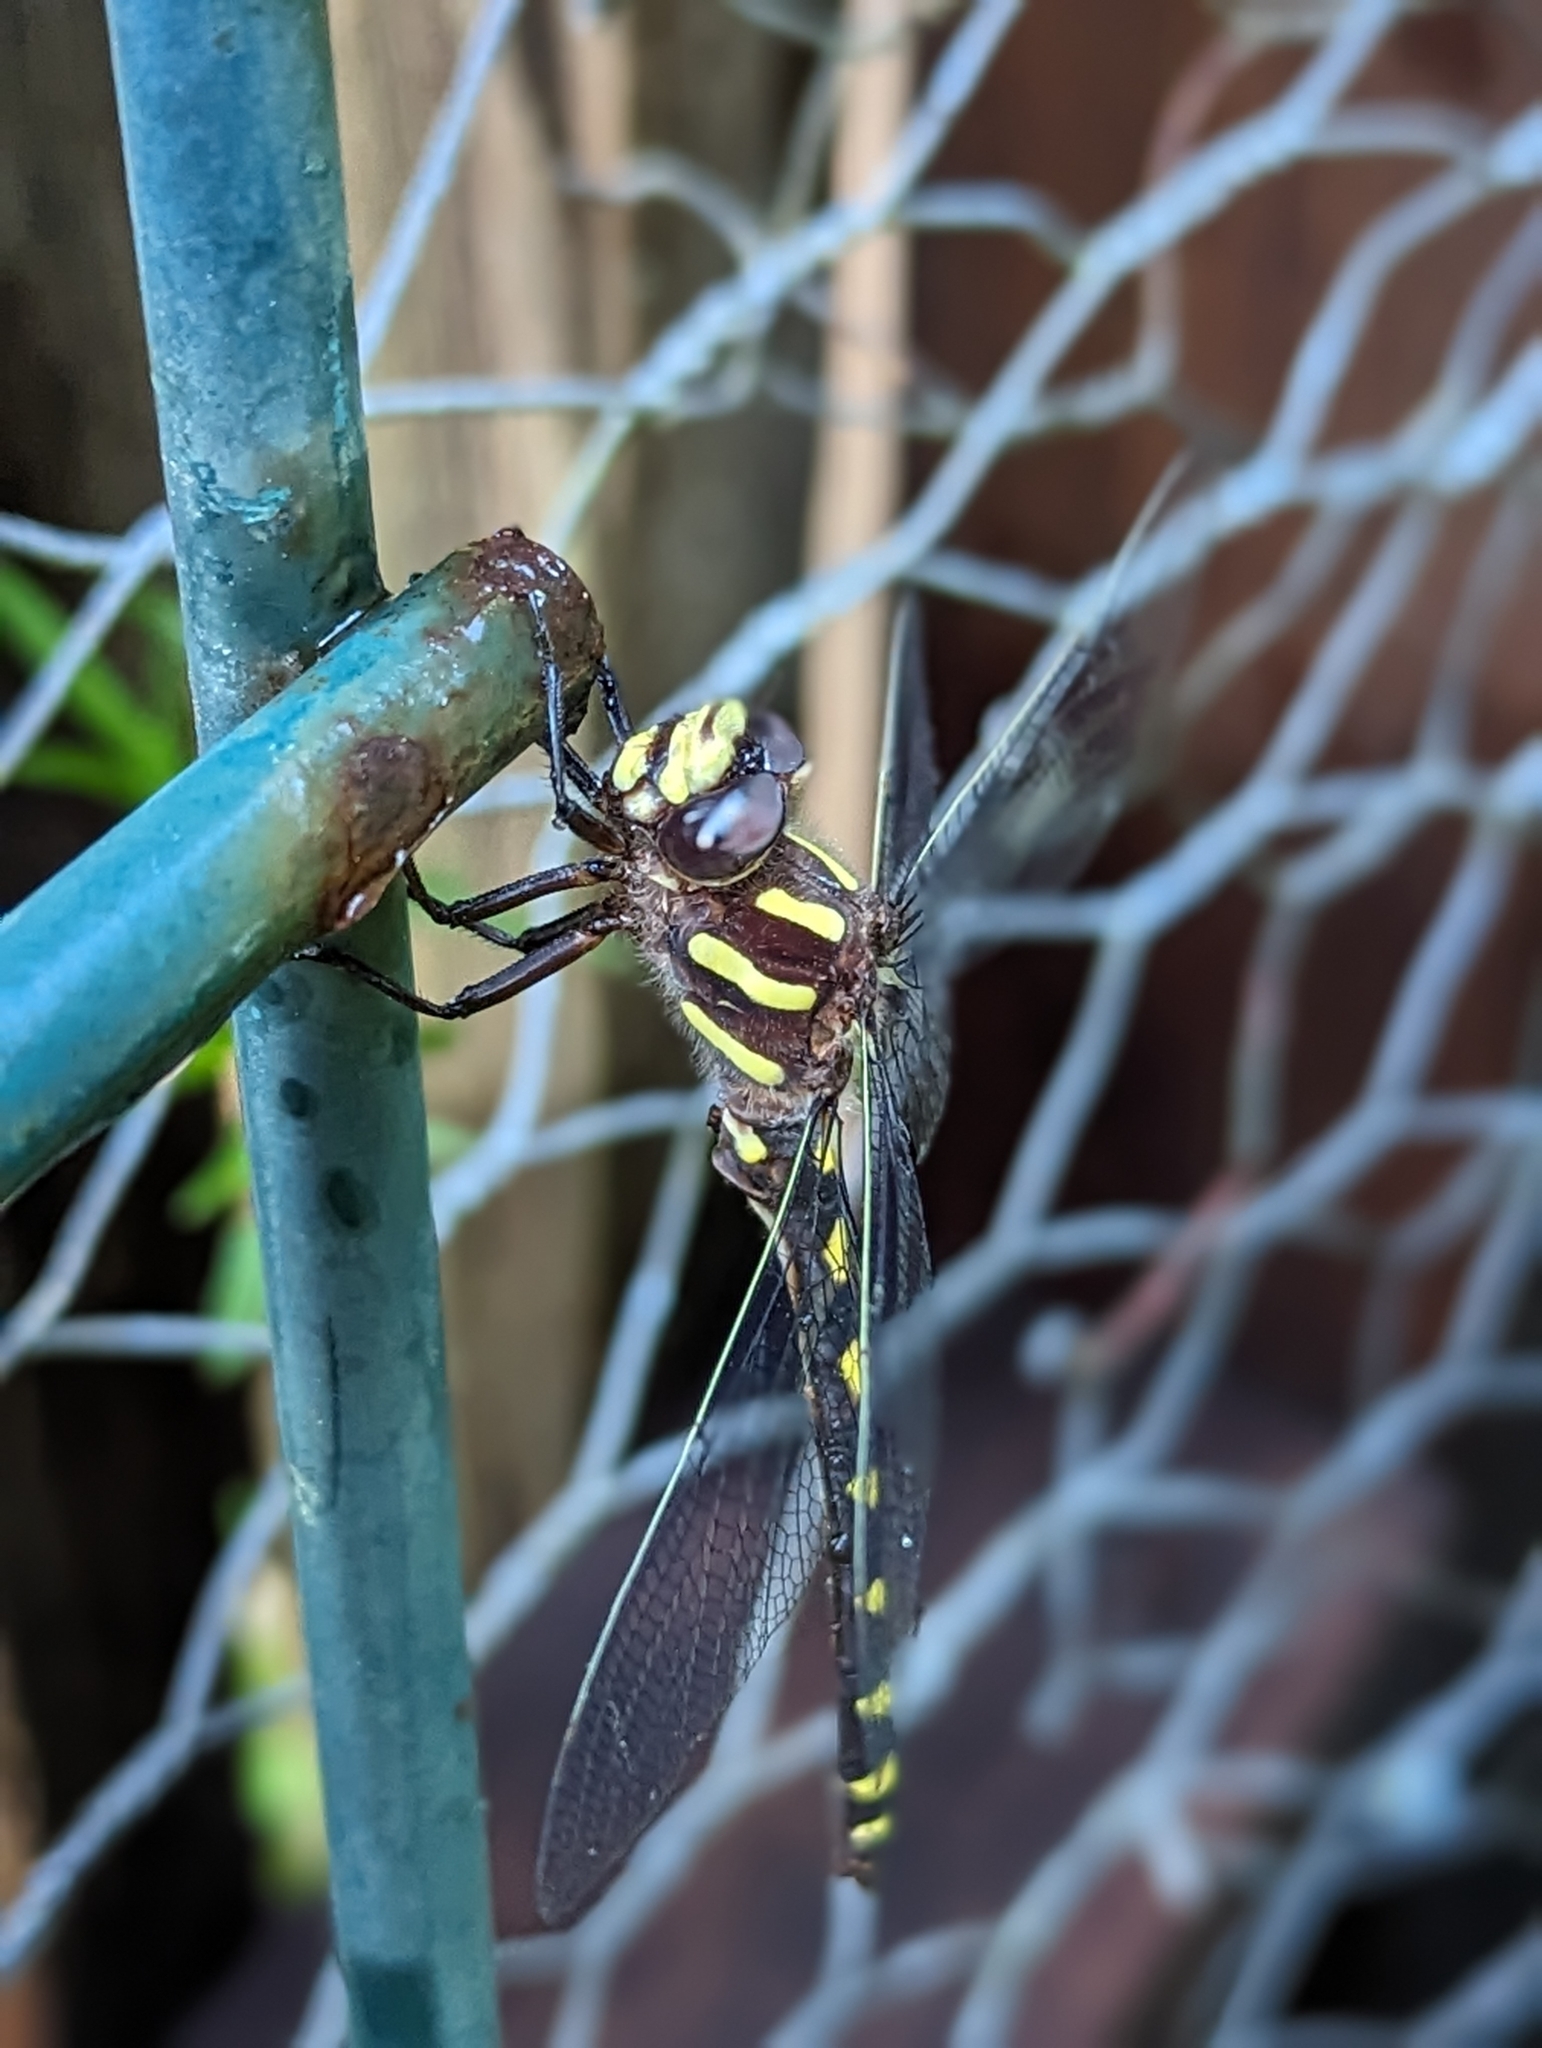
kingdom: Animalia
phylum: Arthropoda
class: Insecta
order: Odonata
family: Cordulegastridae
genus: Cordulegaster
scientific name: Cordulegaster dorsalis
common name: Pacific spiketail
